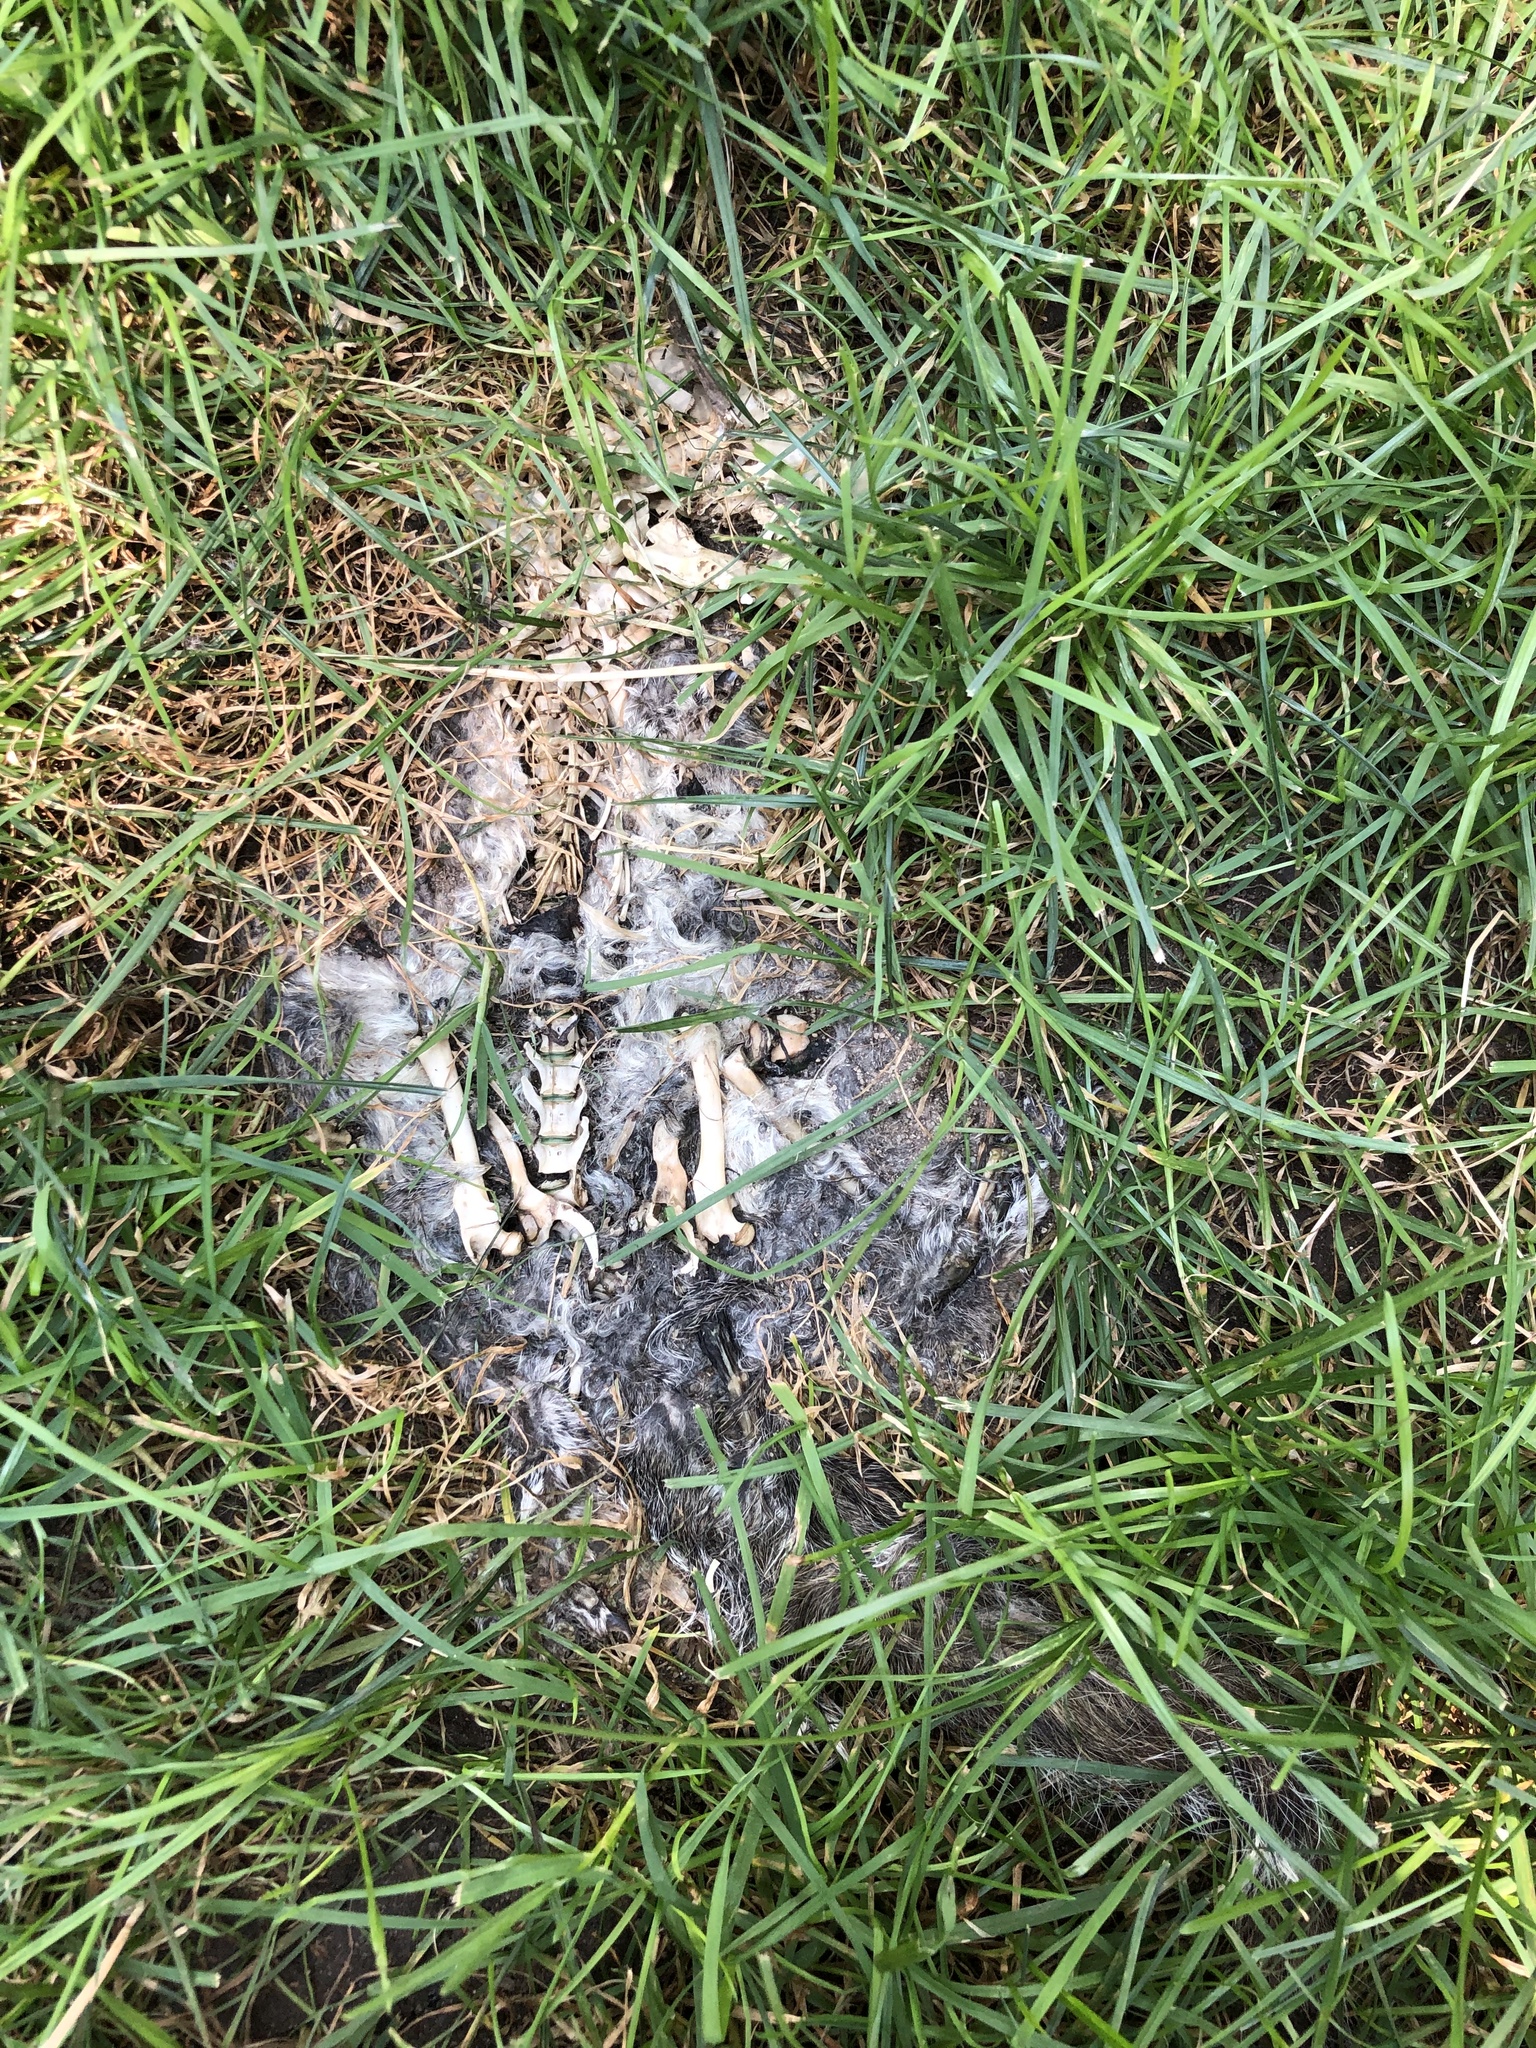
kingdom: Animalia
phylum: Chordata
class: Mammalia
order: Rodentia
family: Sciuridae
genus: Sciurus
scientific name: Sciurus carolinensis
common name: Eastern gray squirrel
